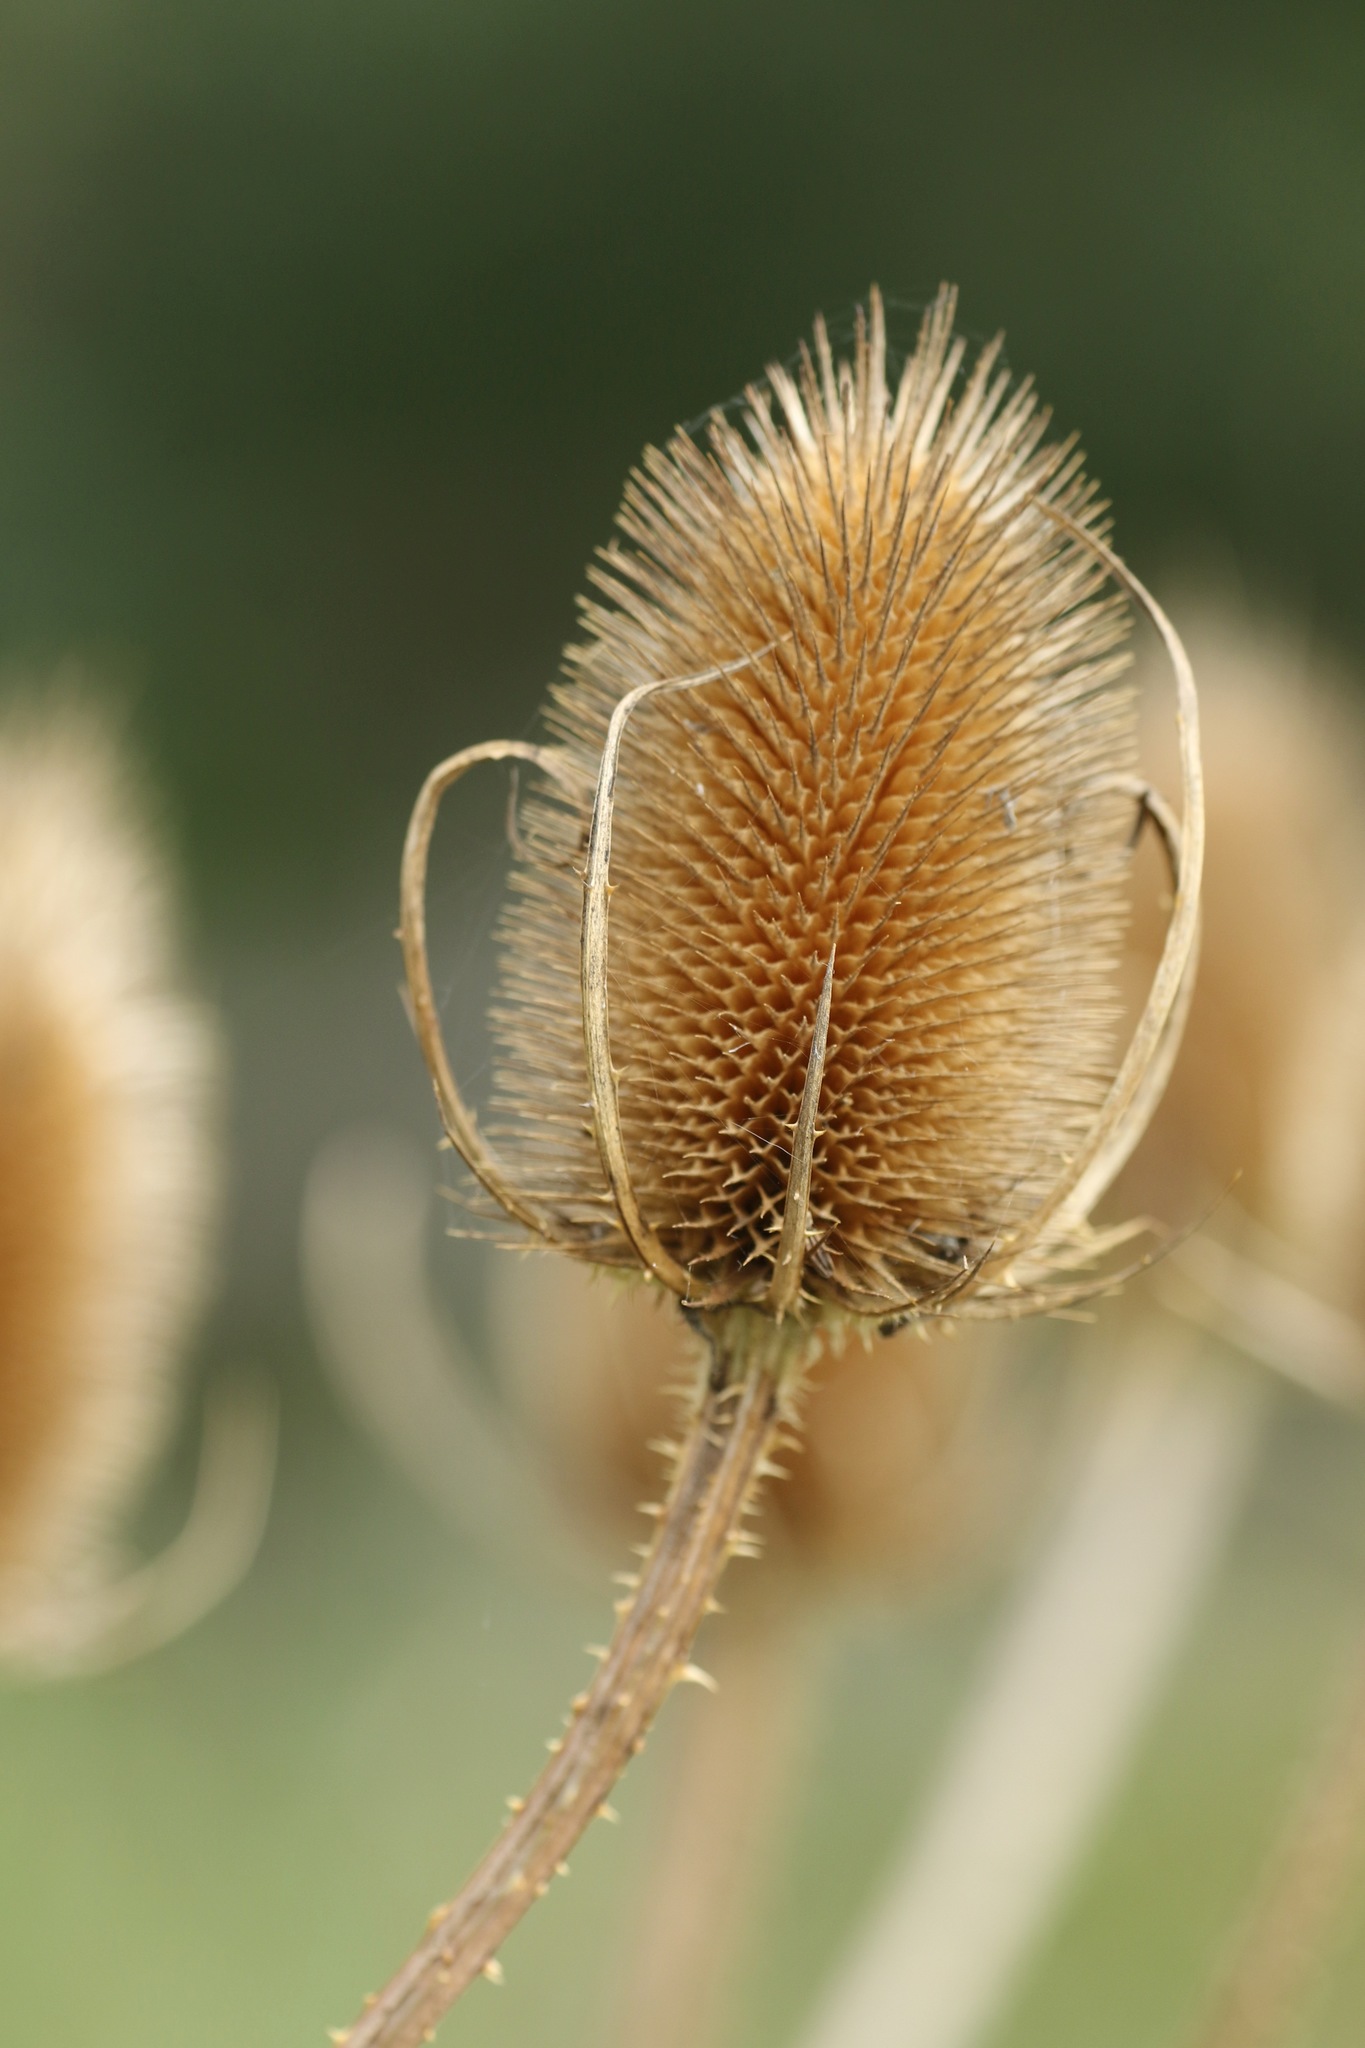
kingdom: Plantae
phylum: Tracheophyta
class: Magnoliopsida
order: Dipsacales
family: Caprifoliaceae
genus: Dipsacus
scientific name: Dipsacus fullonum
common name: Teasel
